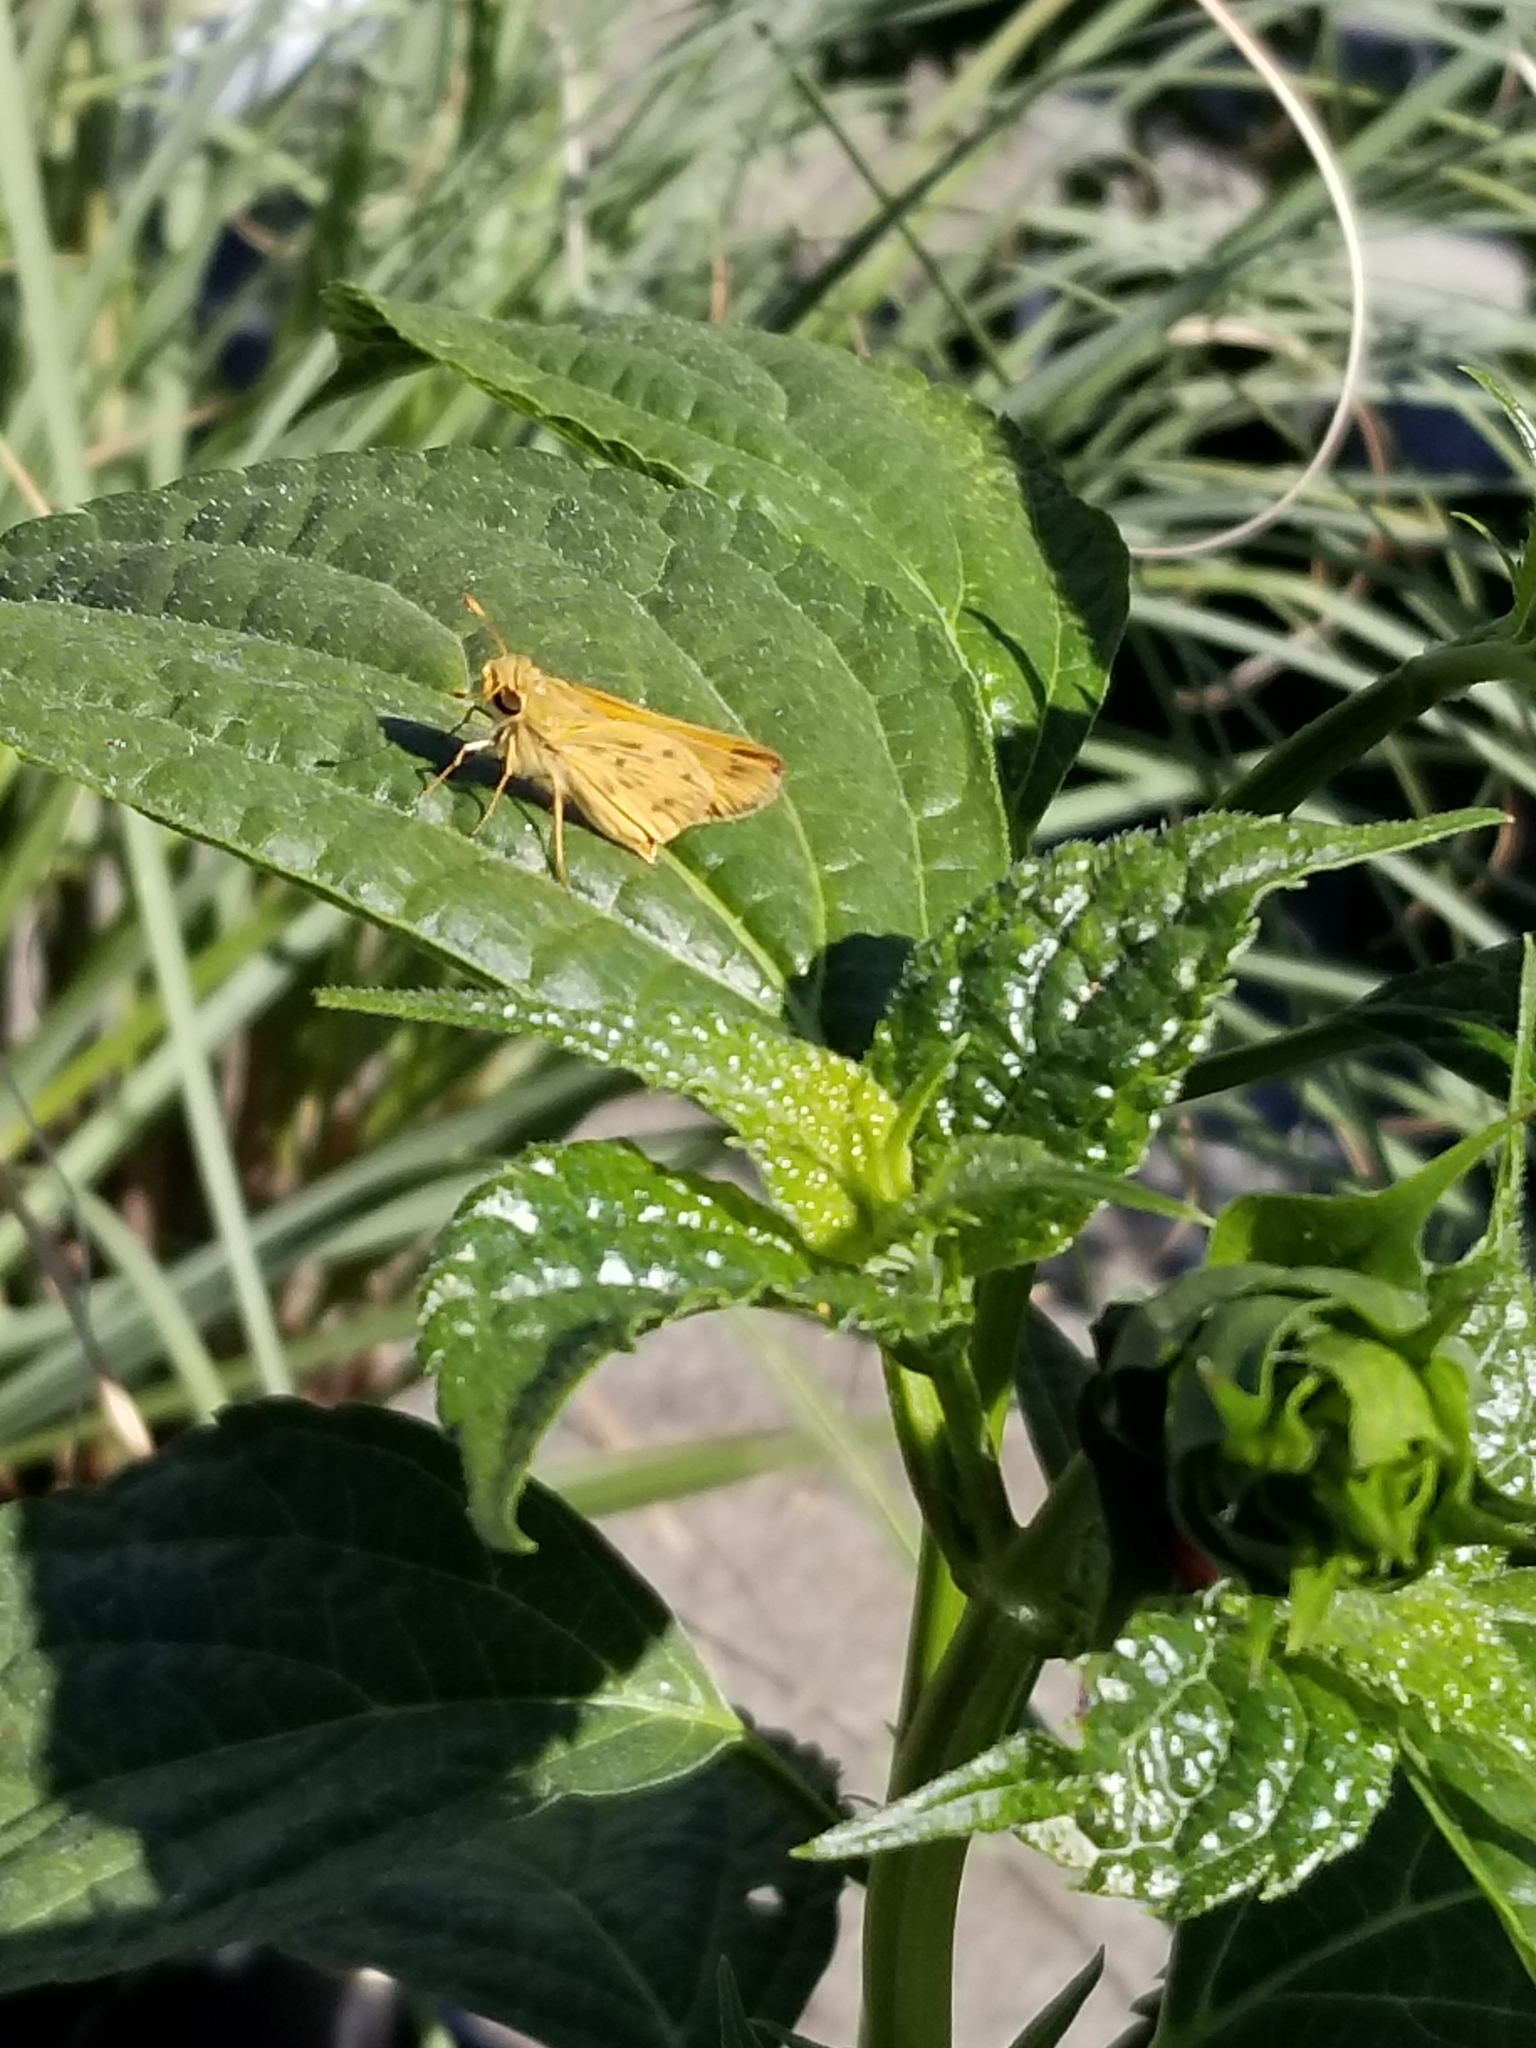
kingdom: Animalia
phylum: Arthropoda
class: Insecta
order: Lepidoptera
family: Hesperiidae
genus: Hylephila
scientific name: Hylephila phyleus
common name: Fiery skipper
